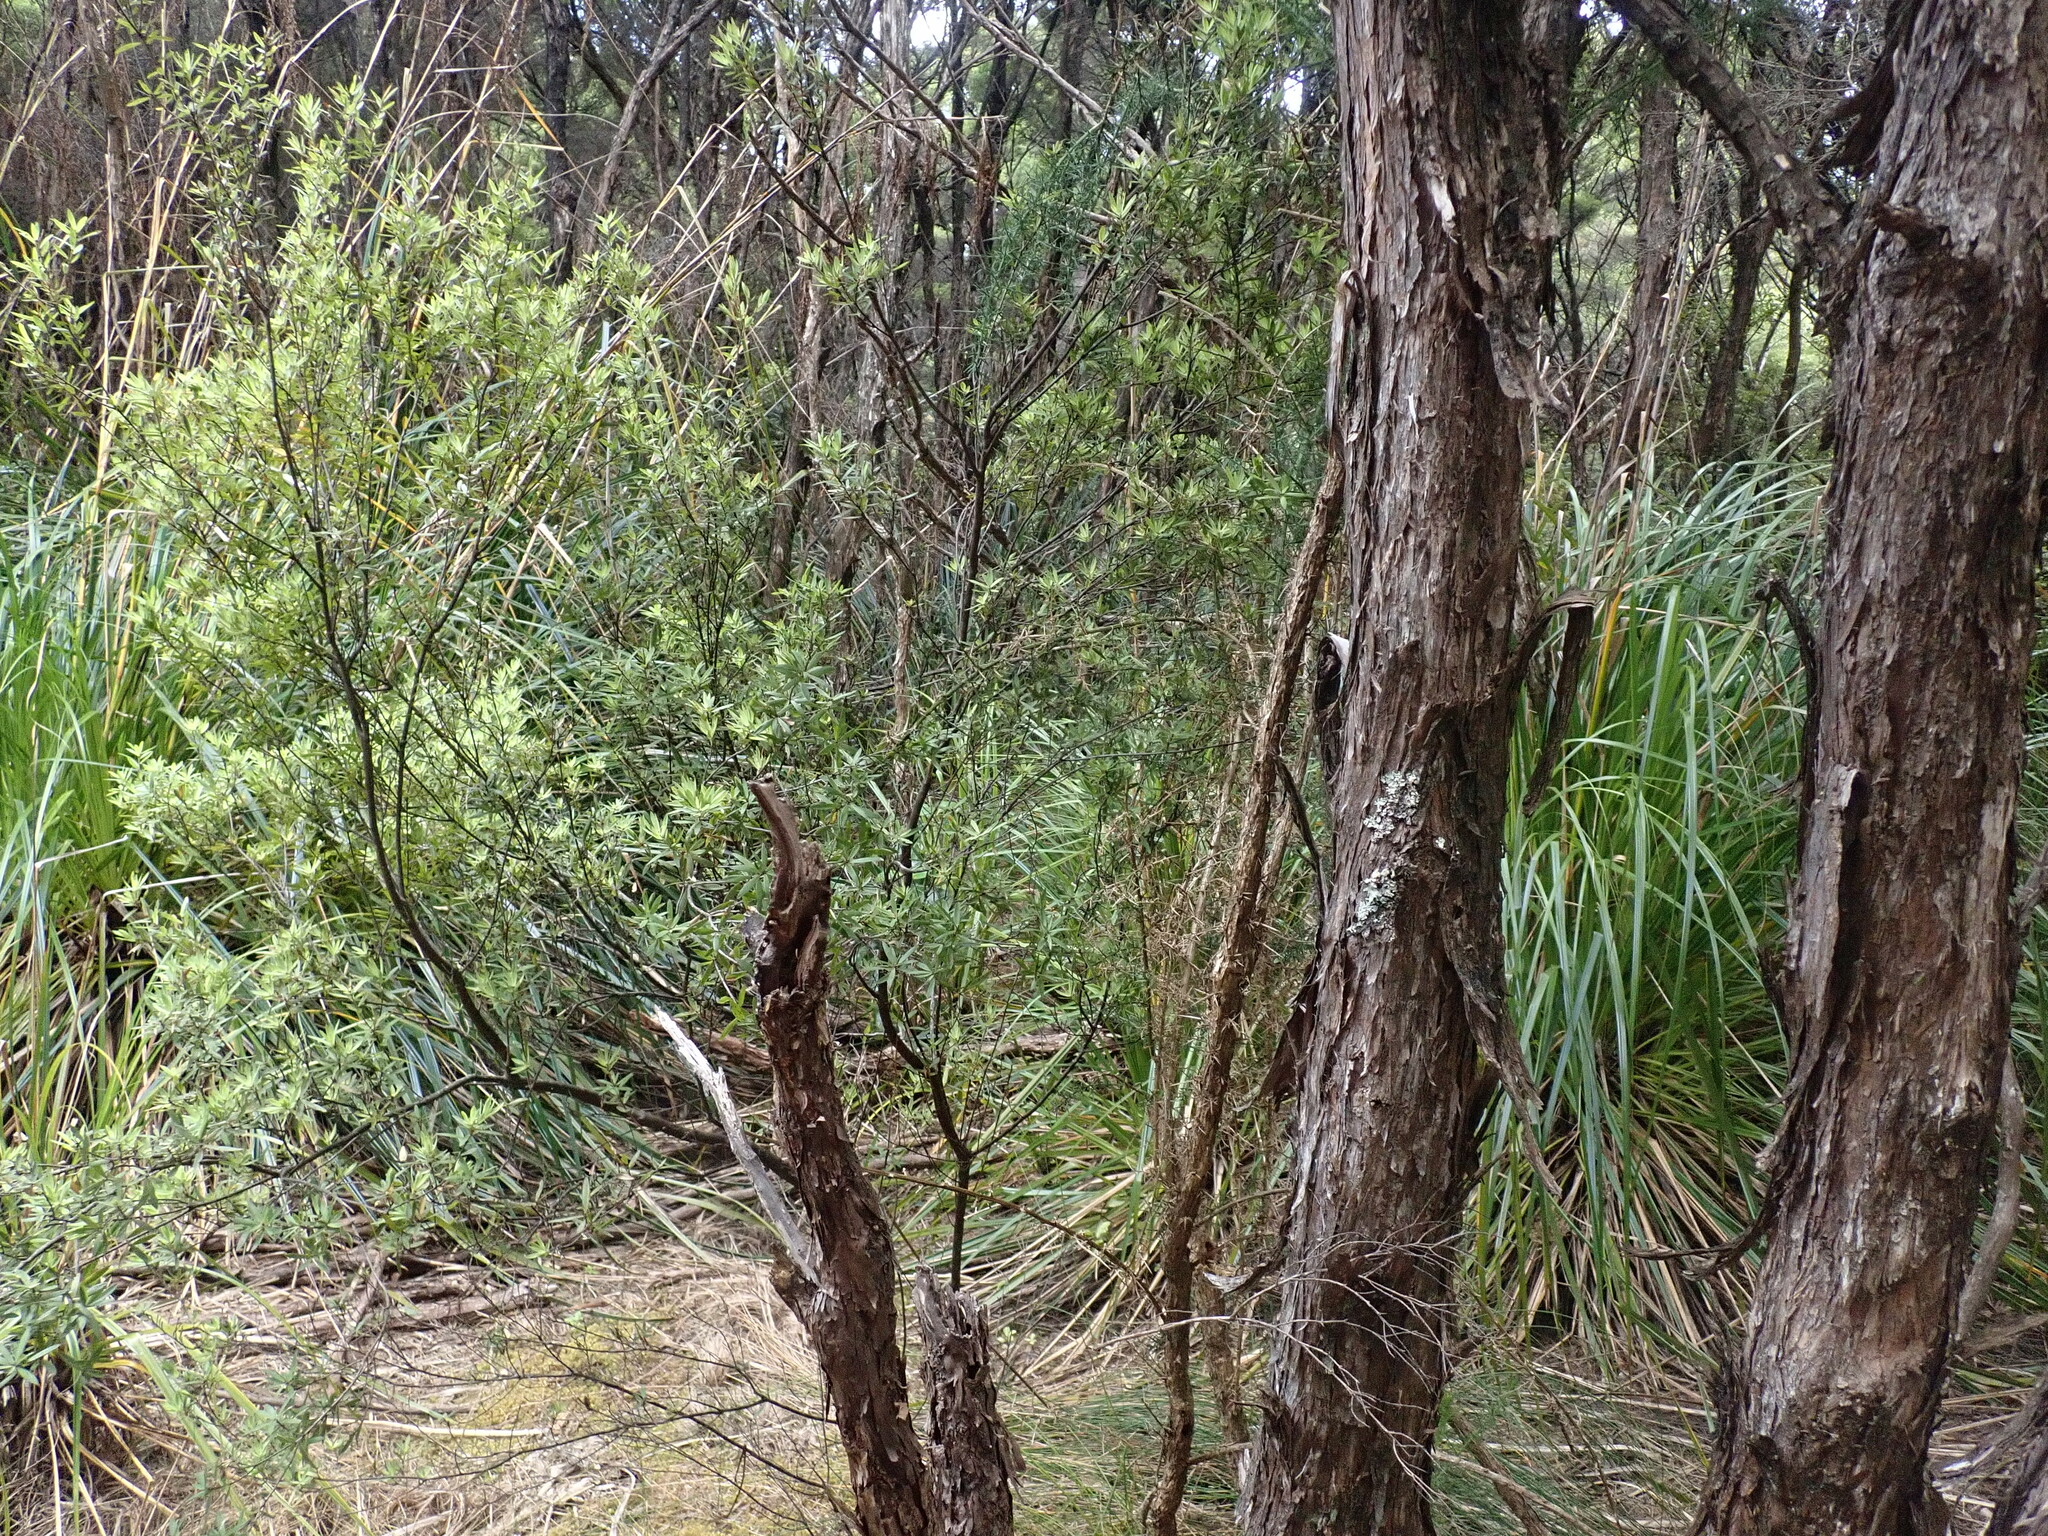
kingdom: Plantae
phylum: Tracheophyta
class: Magnoliopsida
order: Fabales
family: Fabaceae
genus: Ulex
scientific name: Ulex europaeus
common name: Common gorse
